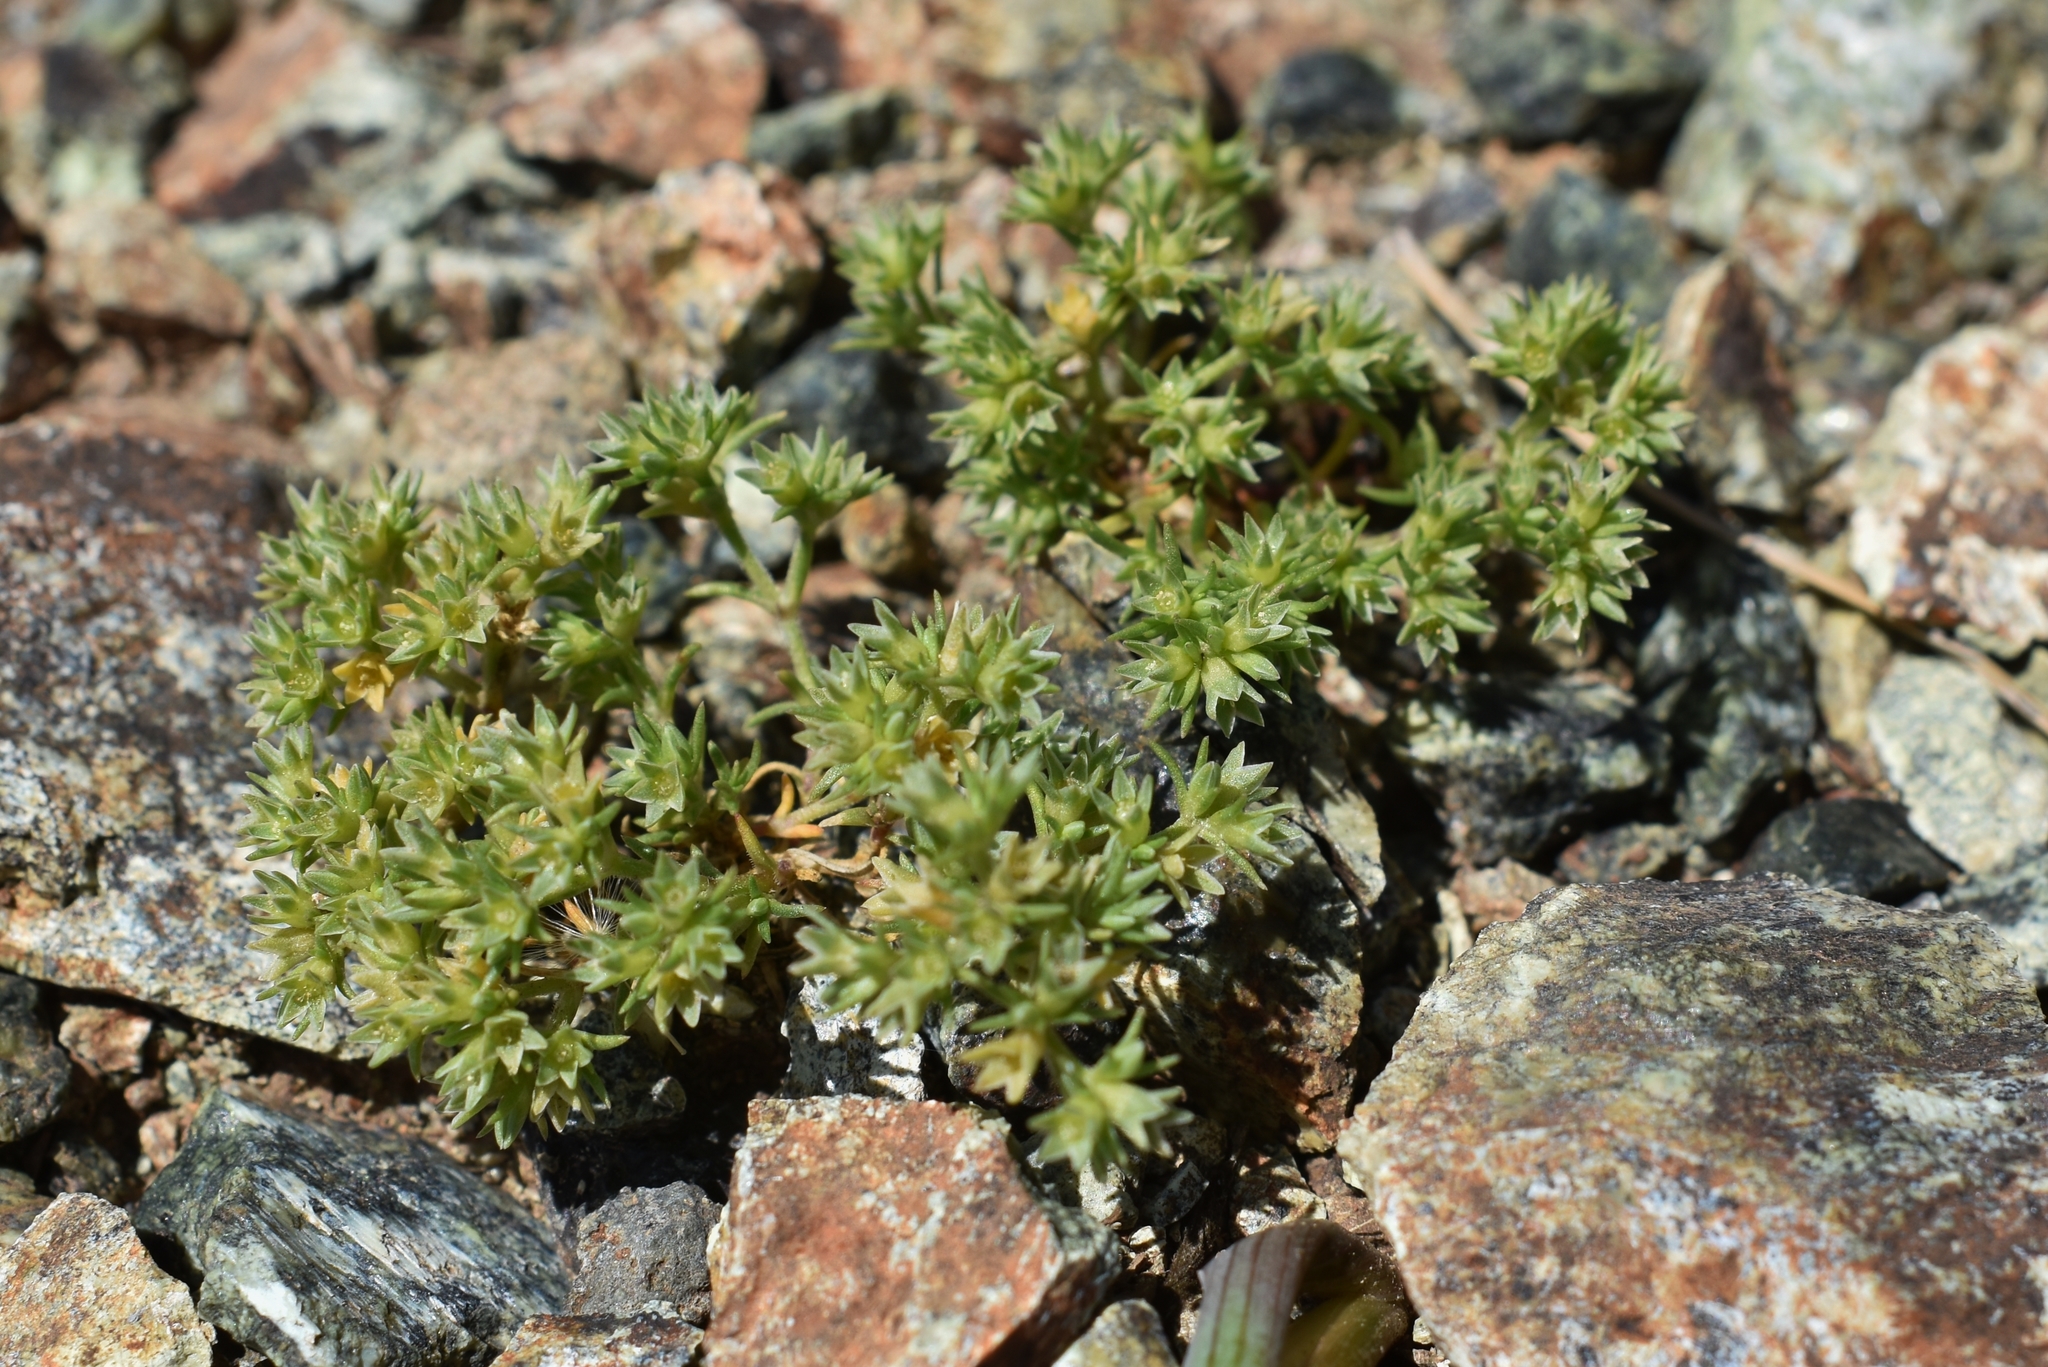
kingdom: Plantae
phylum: Tracheophyta
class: Magnoliopsida
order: Caryophyllales
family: Caryophyllaceae
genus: Scleranthus
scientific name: Scleranthus annuus
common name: Annual knawel
